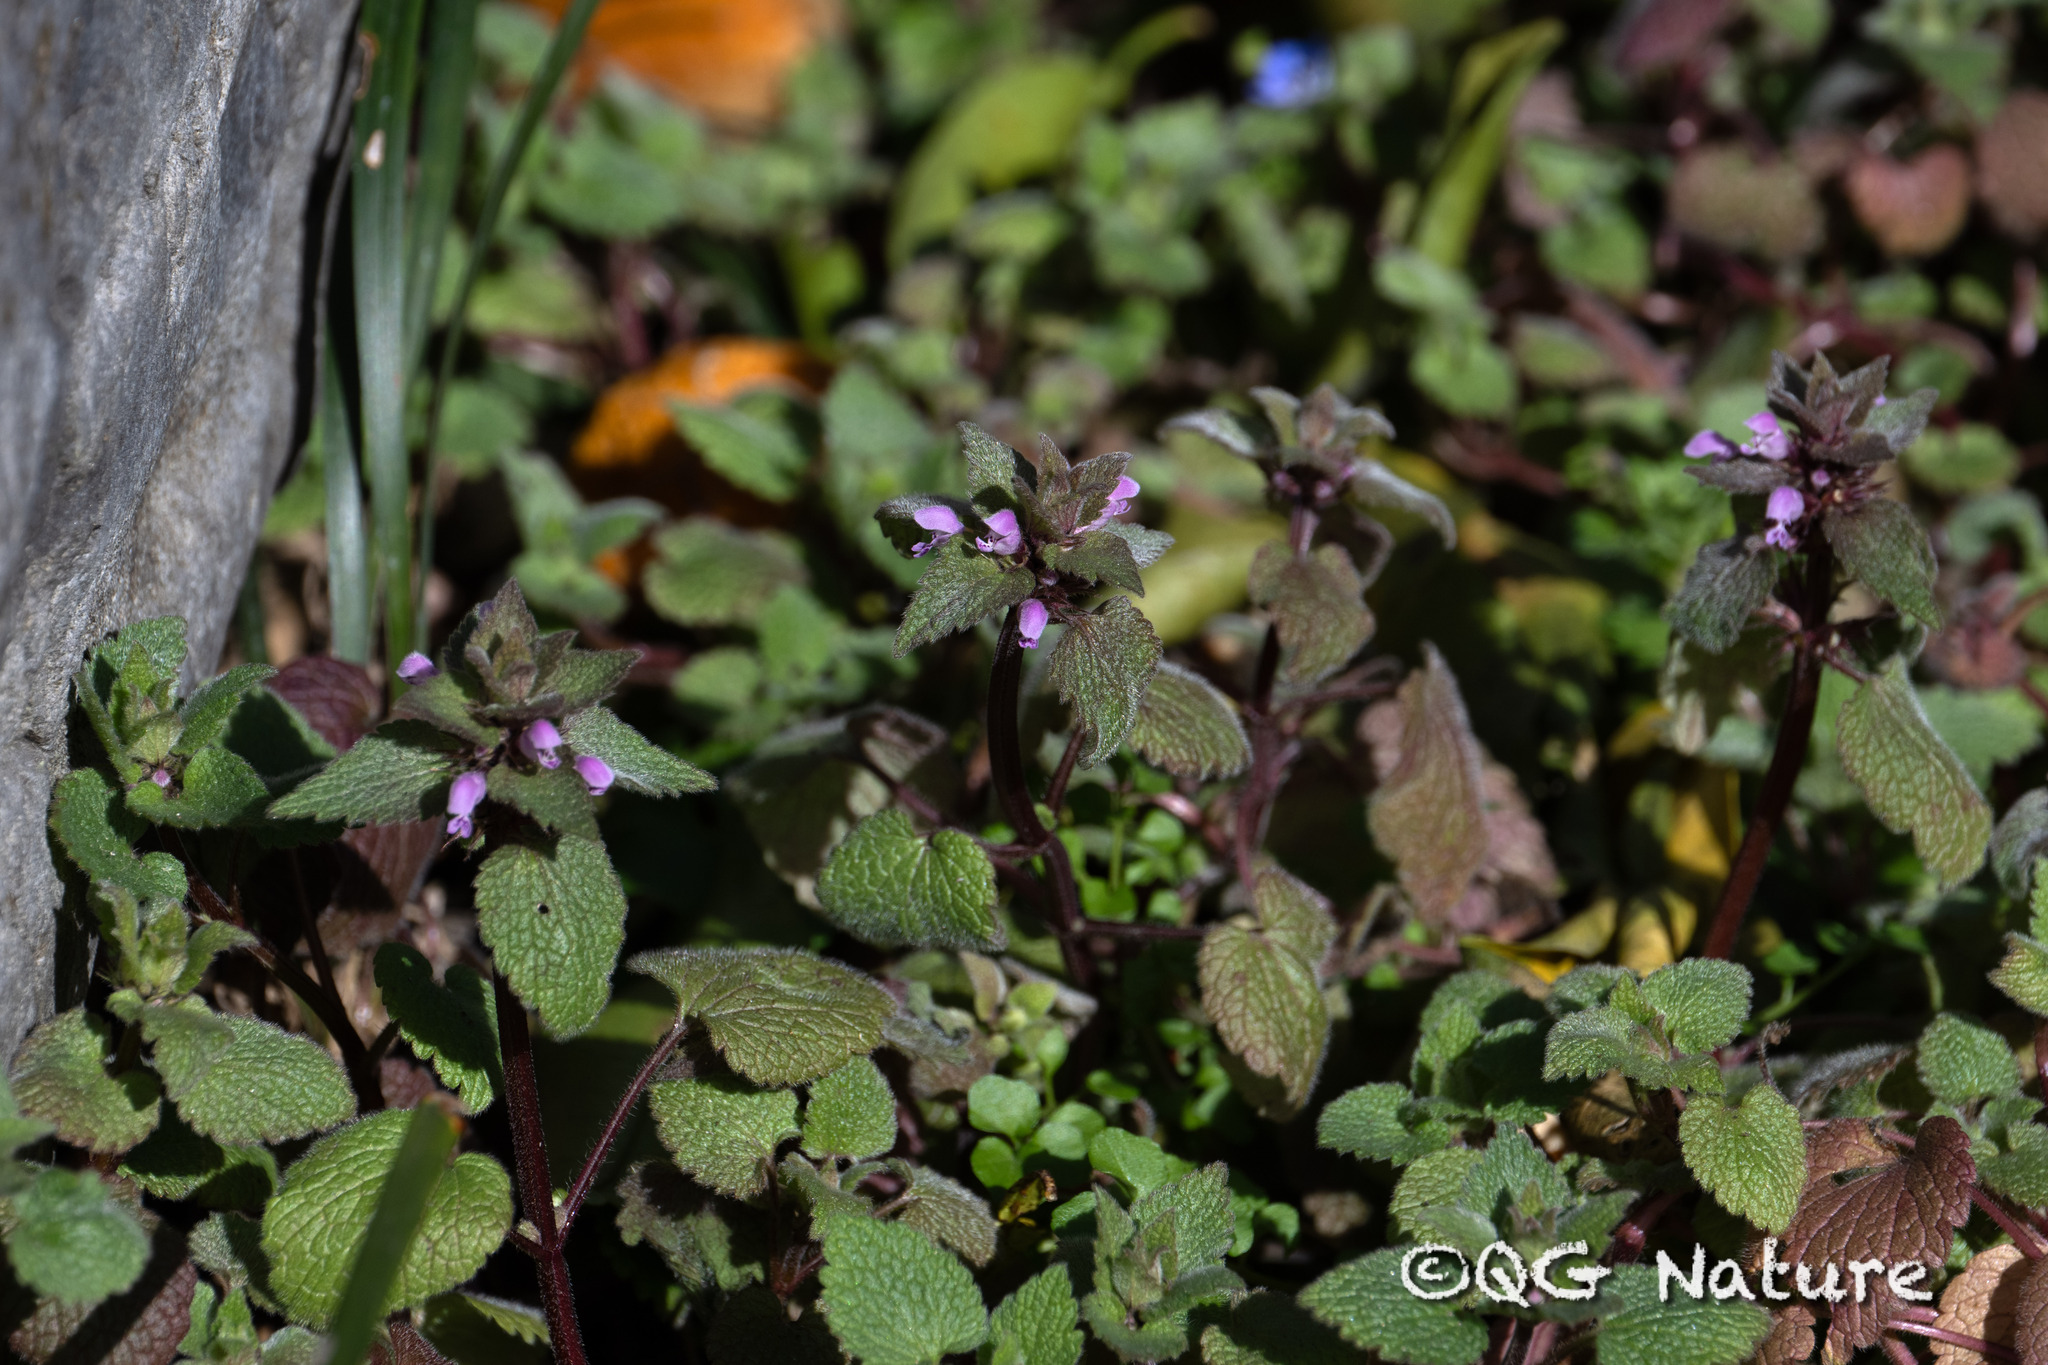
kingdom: Plantae
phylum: Tracheophyta
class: Magnoliopsida
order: Lamiales
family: Lamiaceae
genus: Lamium
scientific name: Lamium purpureum
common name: Red dead-nettle
